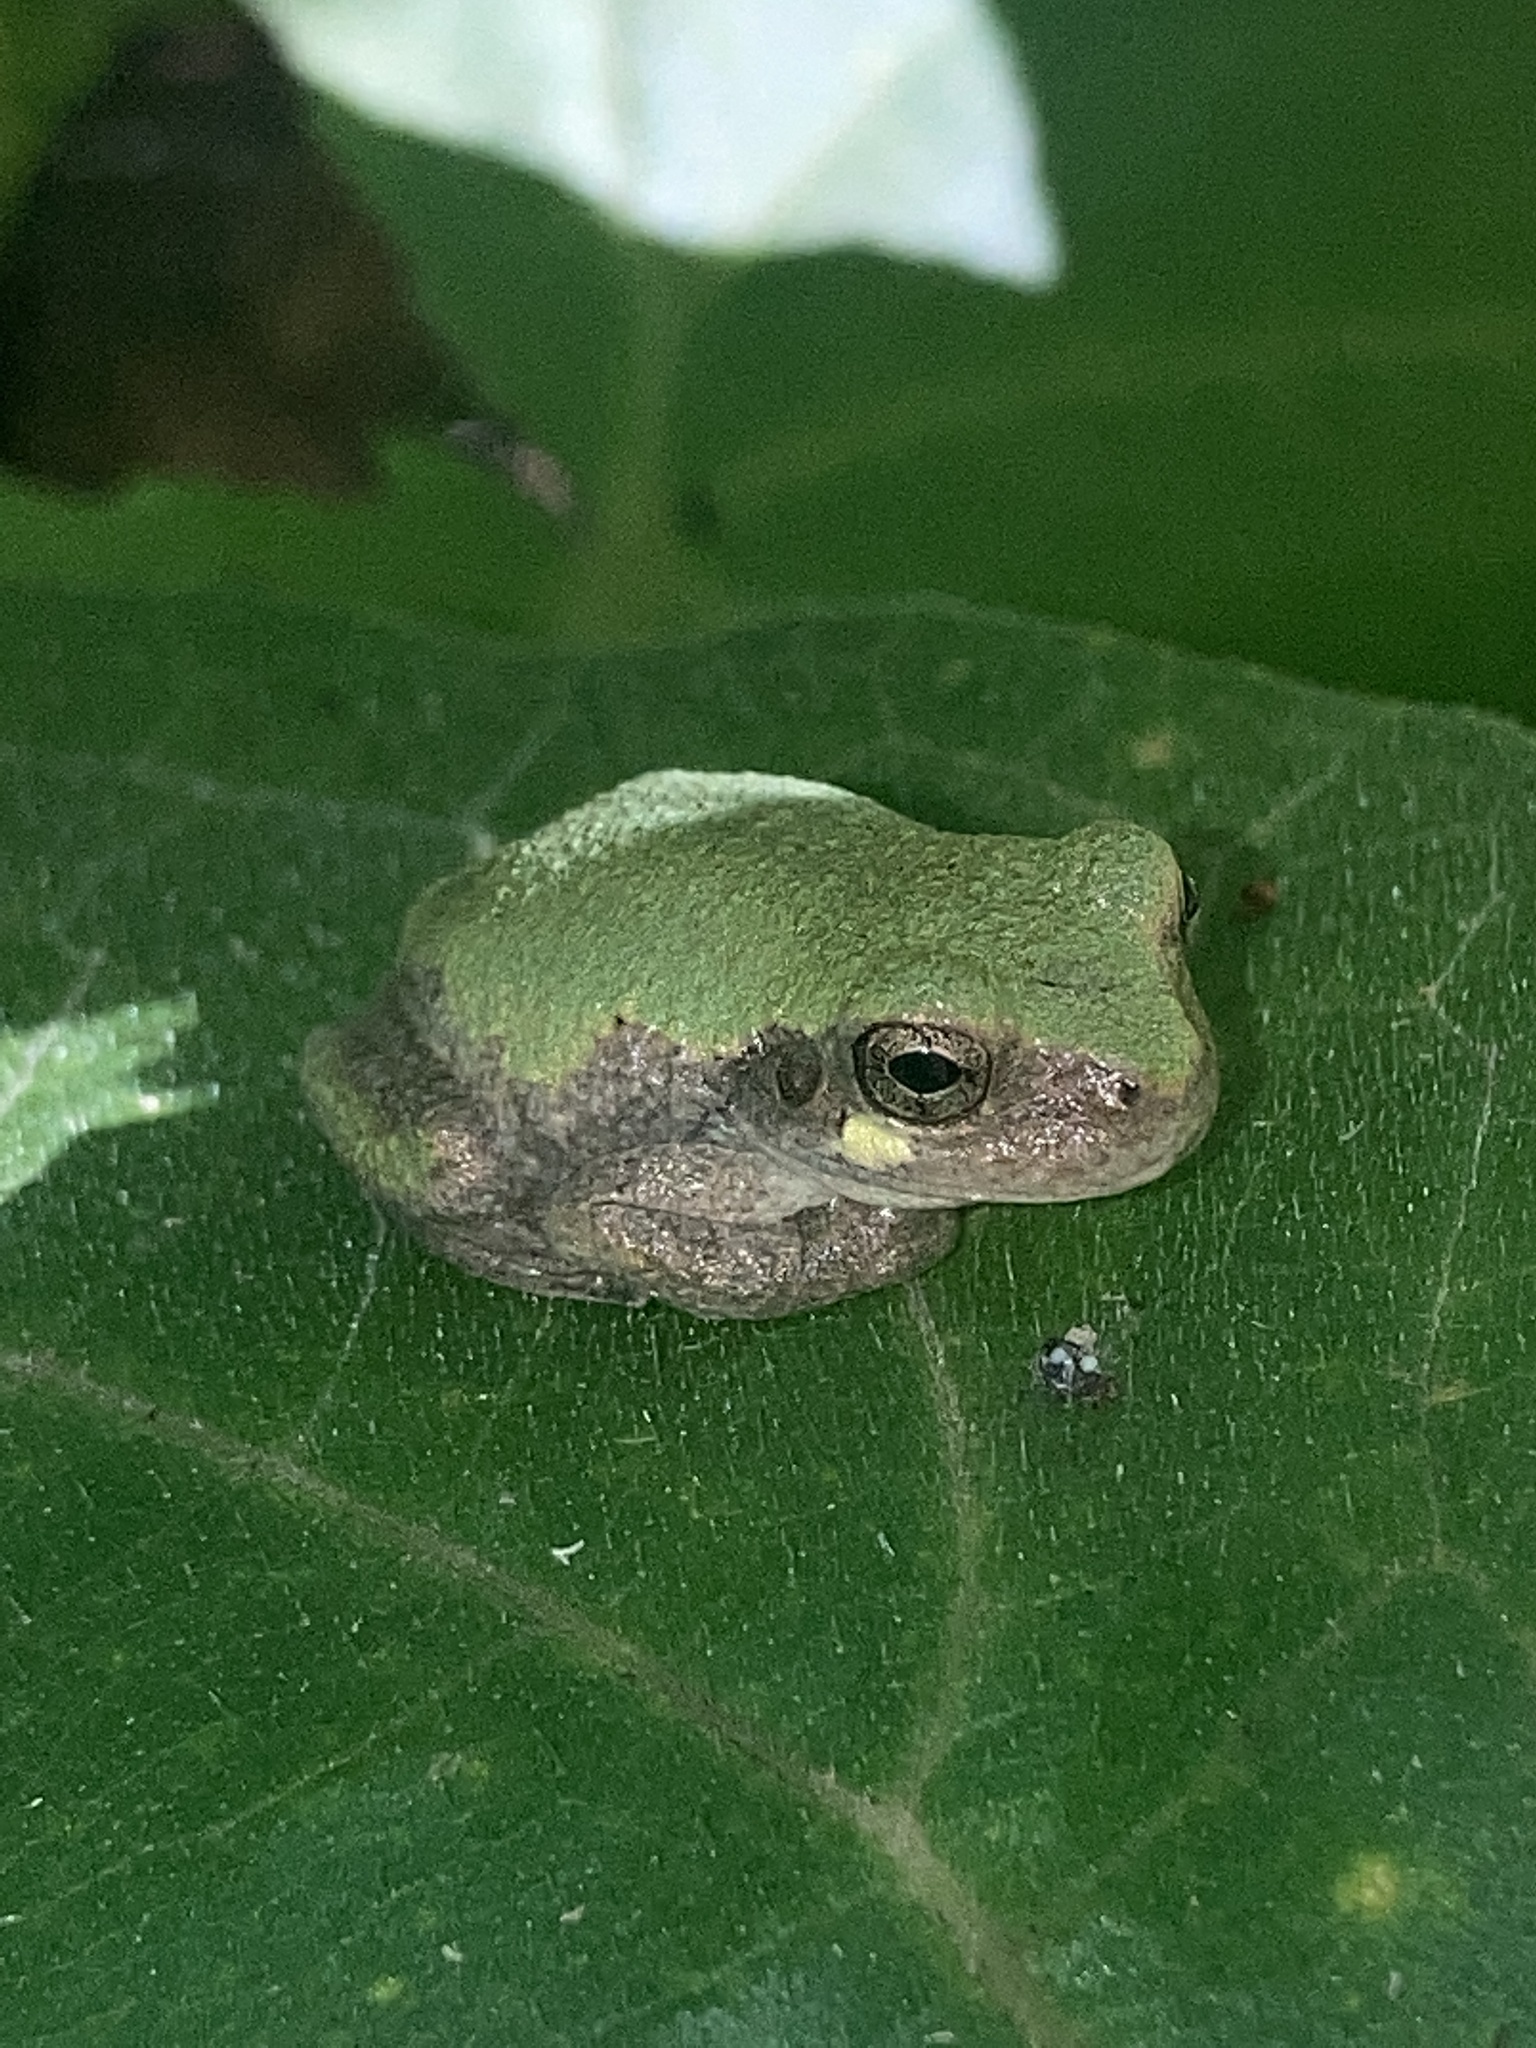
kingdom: Animalia
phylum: Chordata
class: Amphibia
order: Anura
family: Hylidae
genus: Dryophytes
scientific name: Dryophytes avivoca
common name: Bird-voiced treefrog
